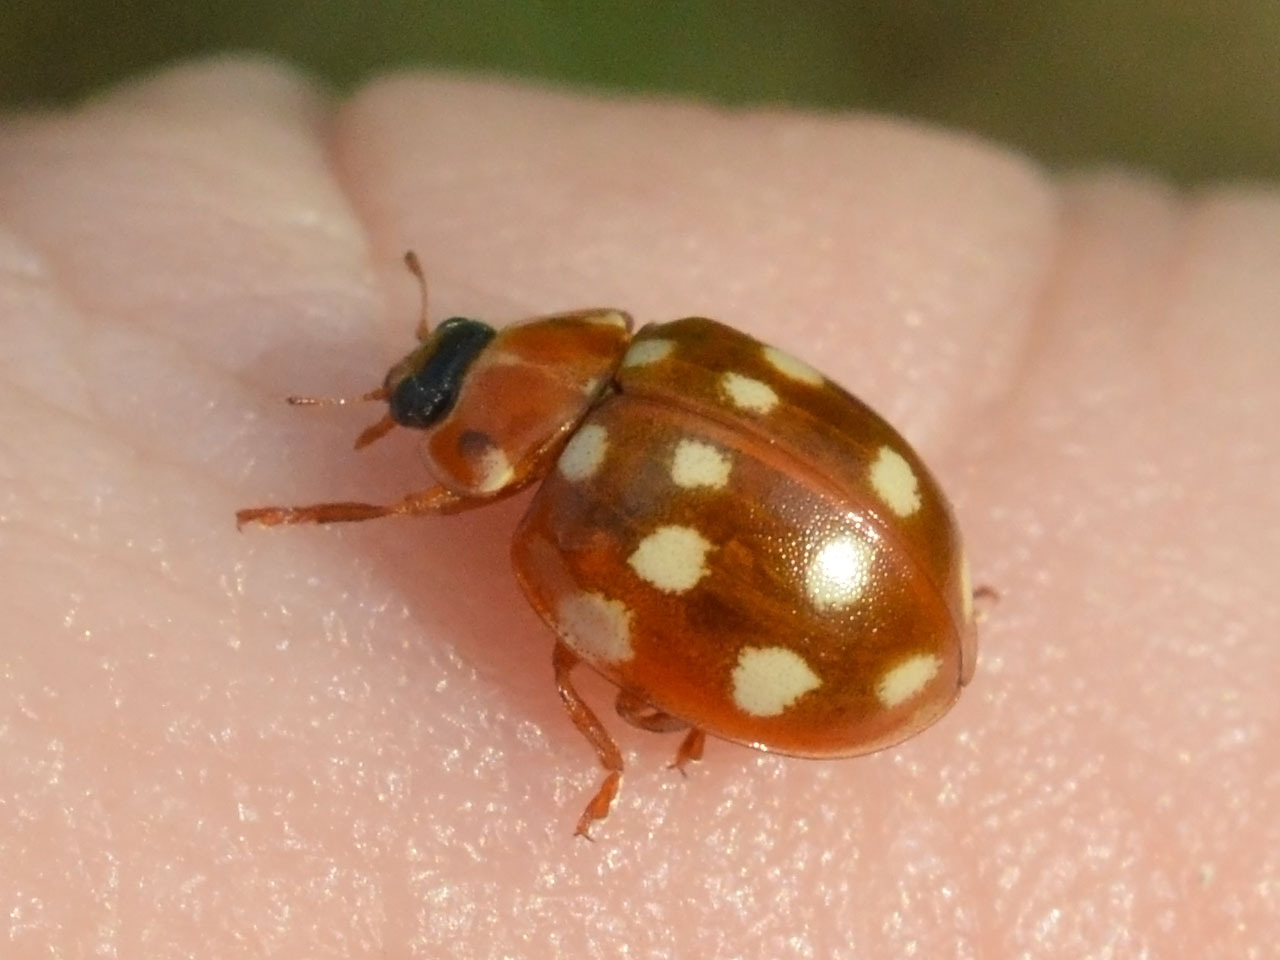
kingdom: Animalia
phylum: Arthropoda
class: Insecta
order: Coleoptera
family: Coccinellidae
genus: Calvia
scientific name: Calvia quatuordecimguttata
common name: Cream-spot ladybird
